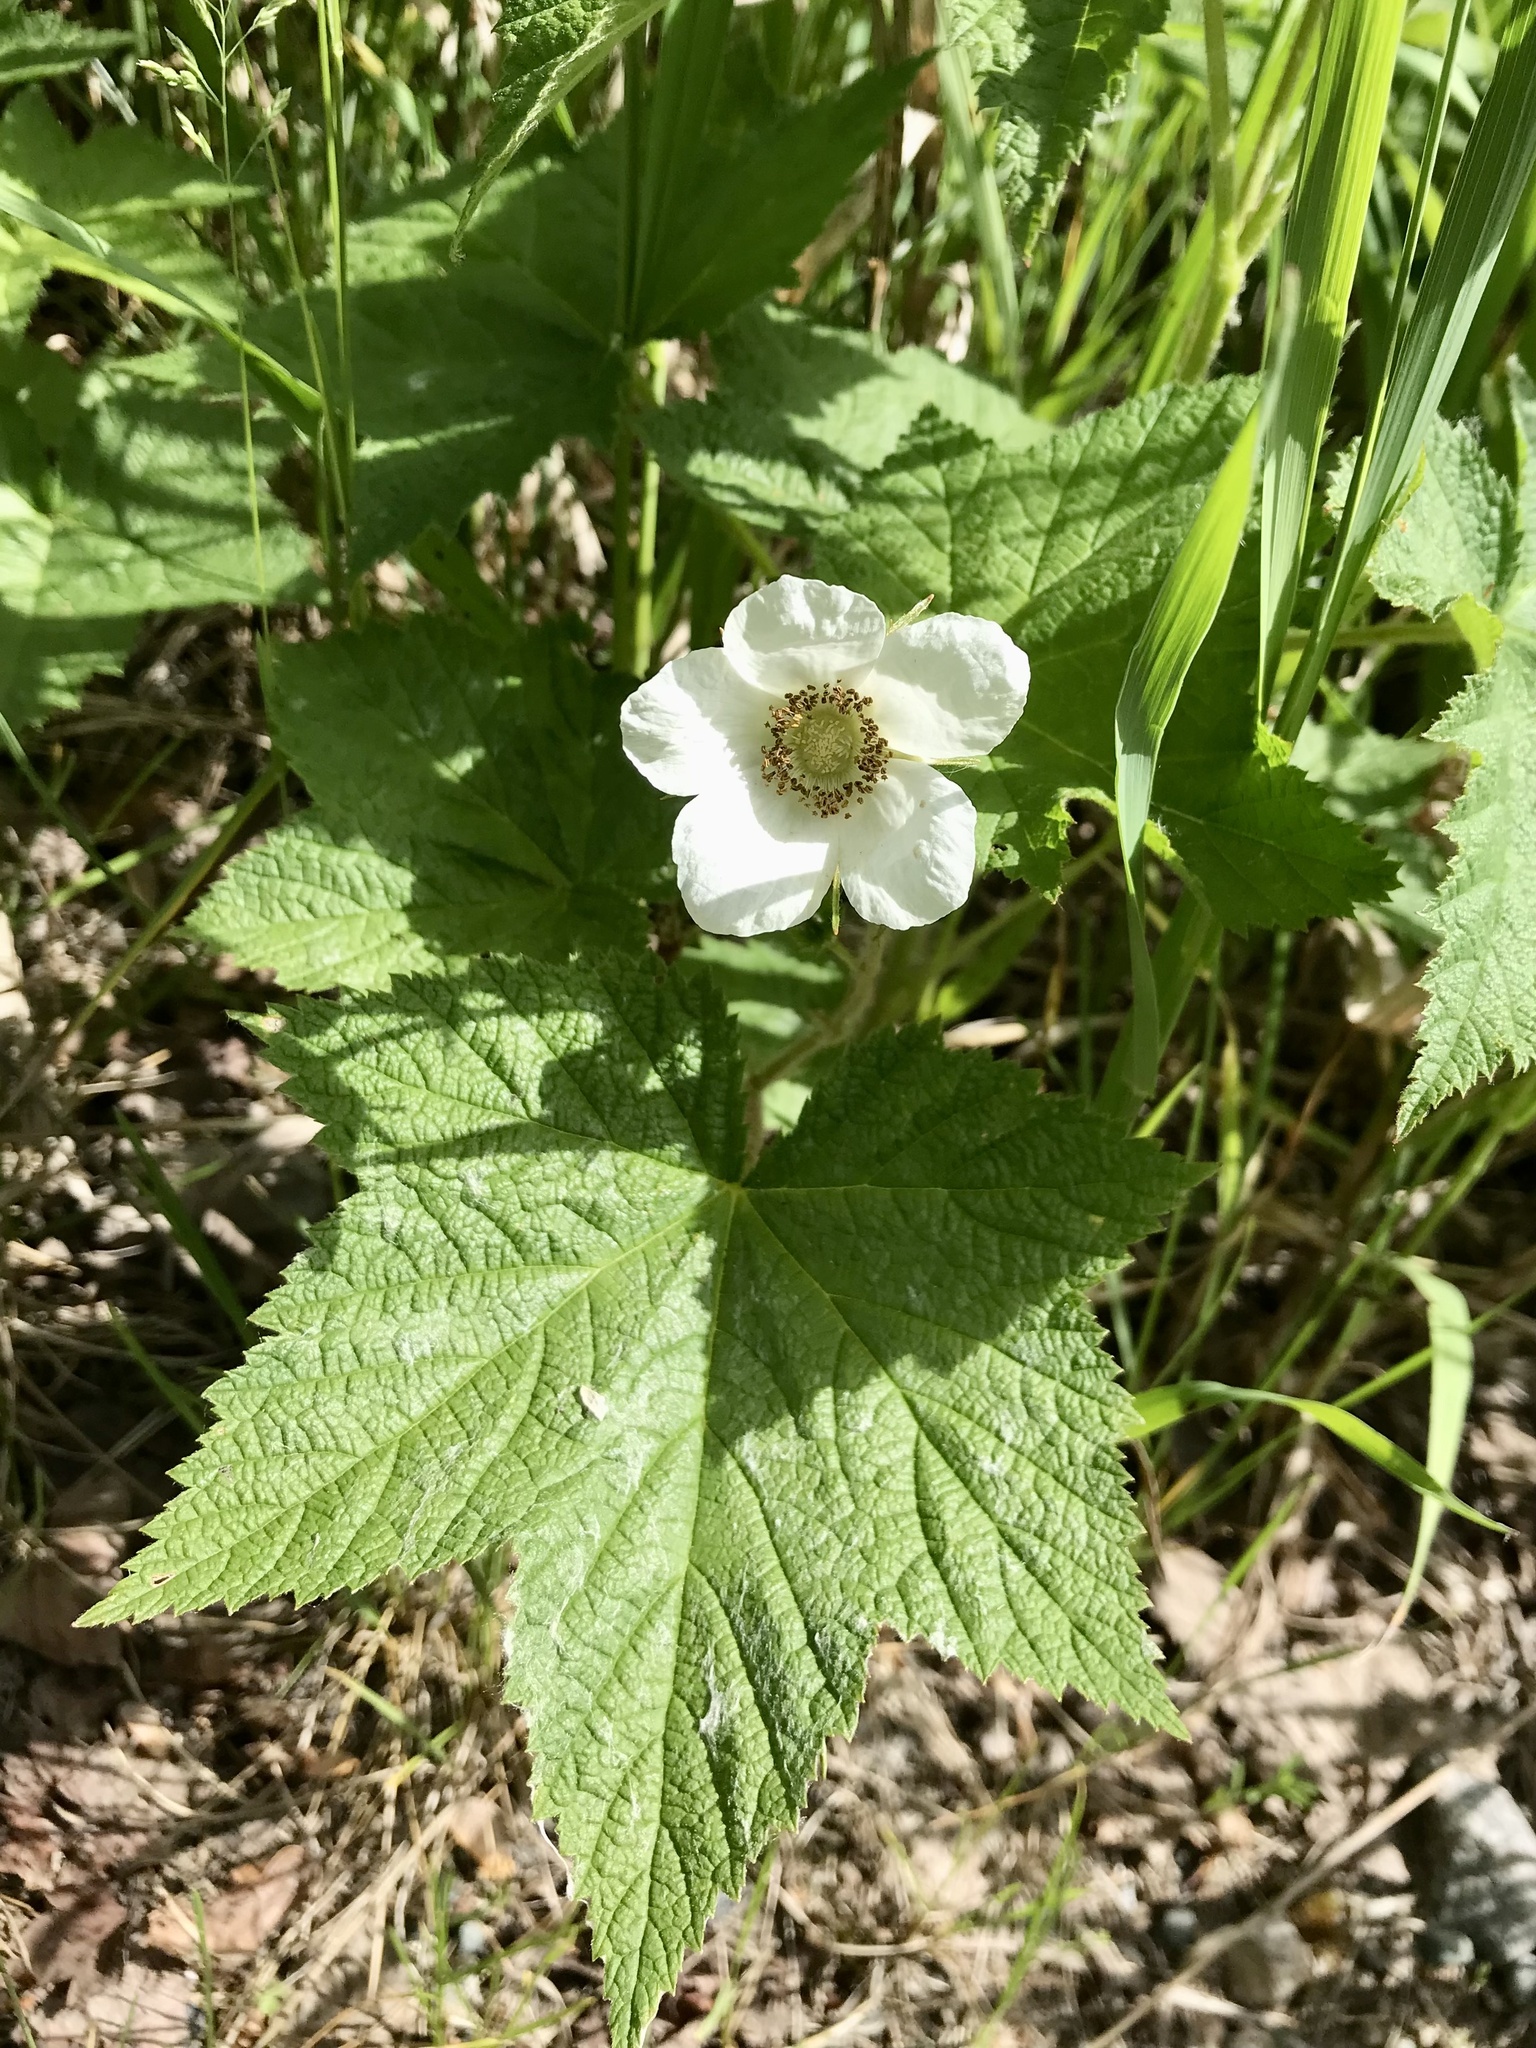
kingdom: Plantae
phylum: Tracheophyta
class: Magnoliopsida
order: Rosales
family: Rosaceae
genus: Rubus
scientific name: Rubus parviflorus
